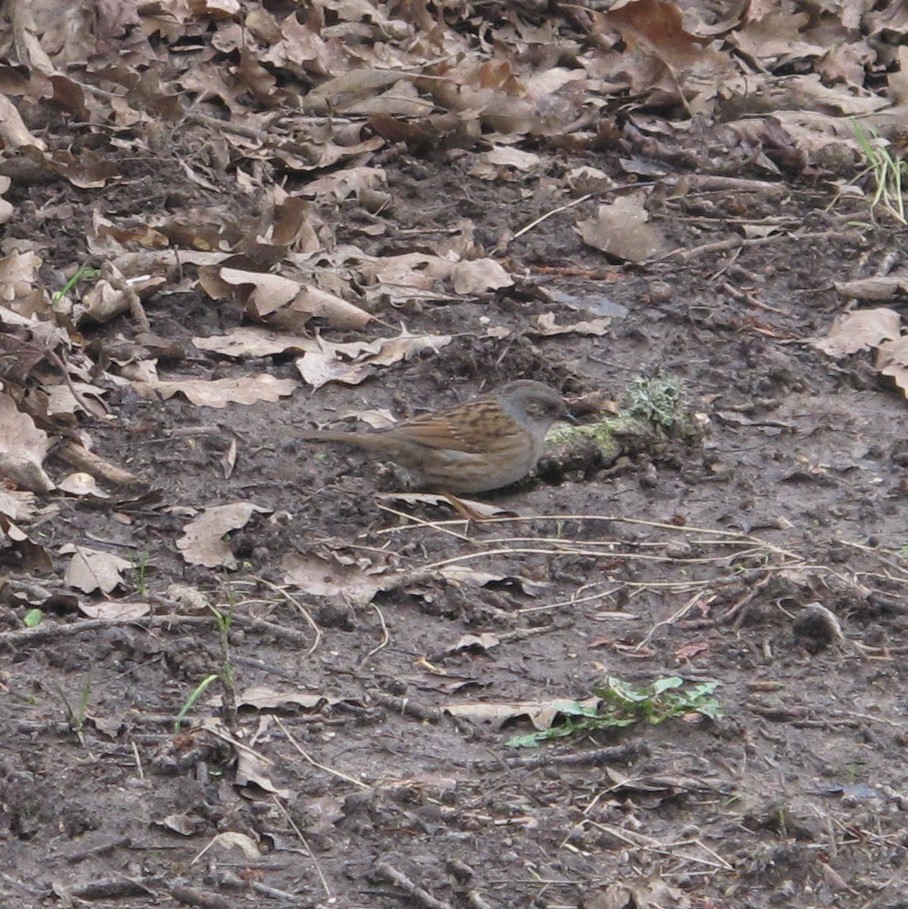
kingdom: Animalia
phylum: Chordata
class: Aves
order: Passeriformes
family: Prunellidae
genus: Prunella
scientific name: Prunella modularis
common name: Dunnock
